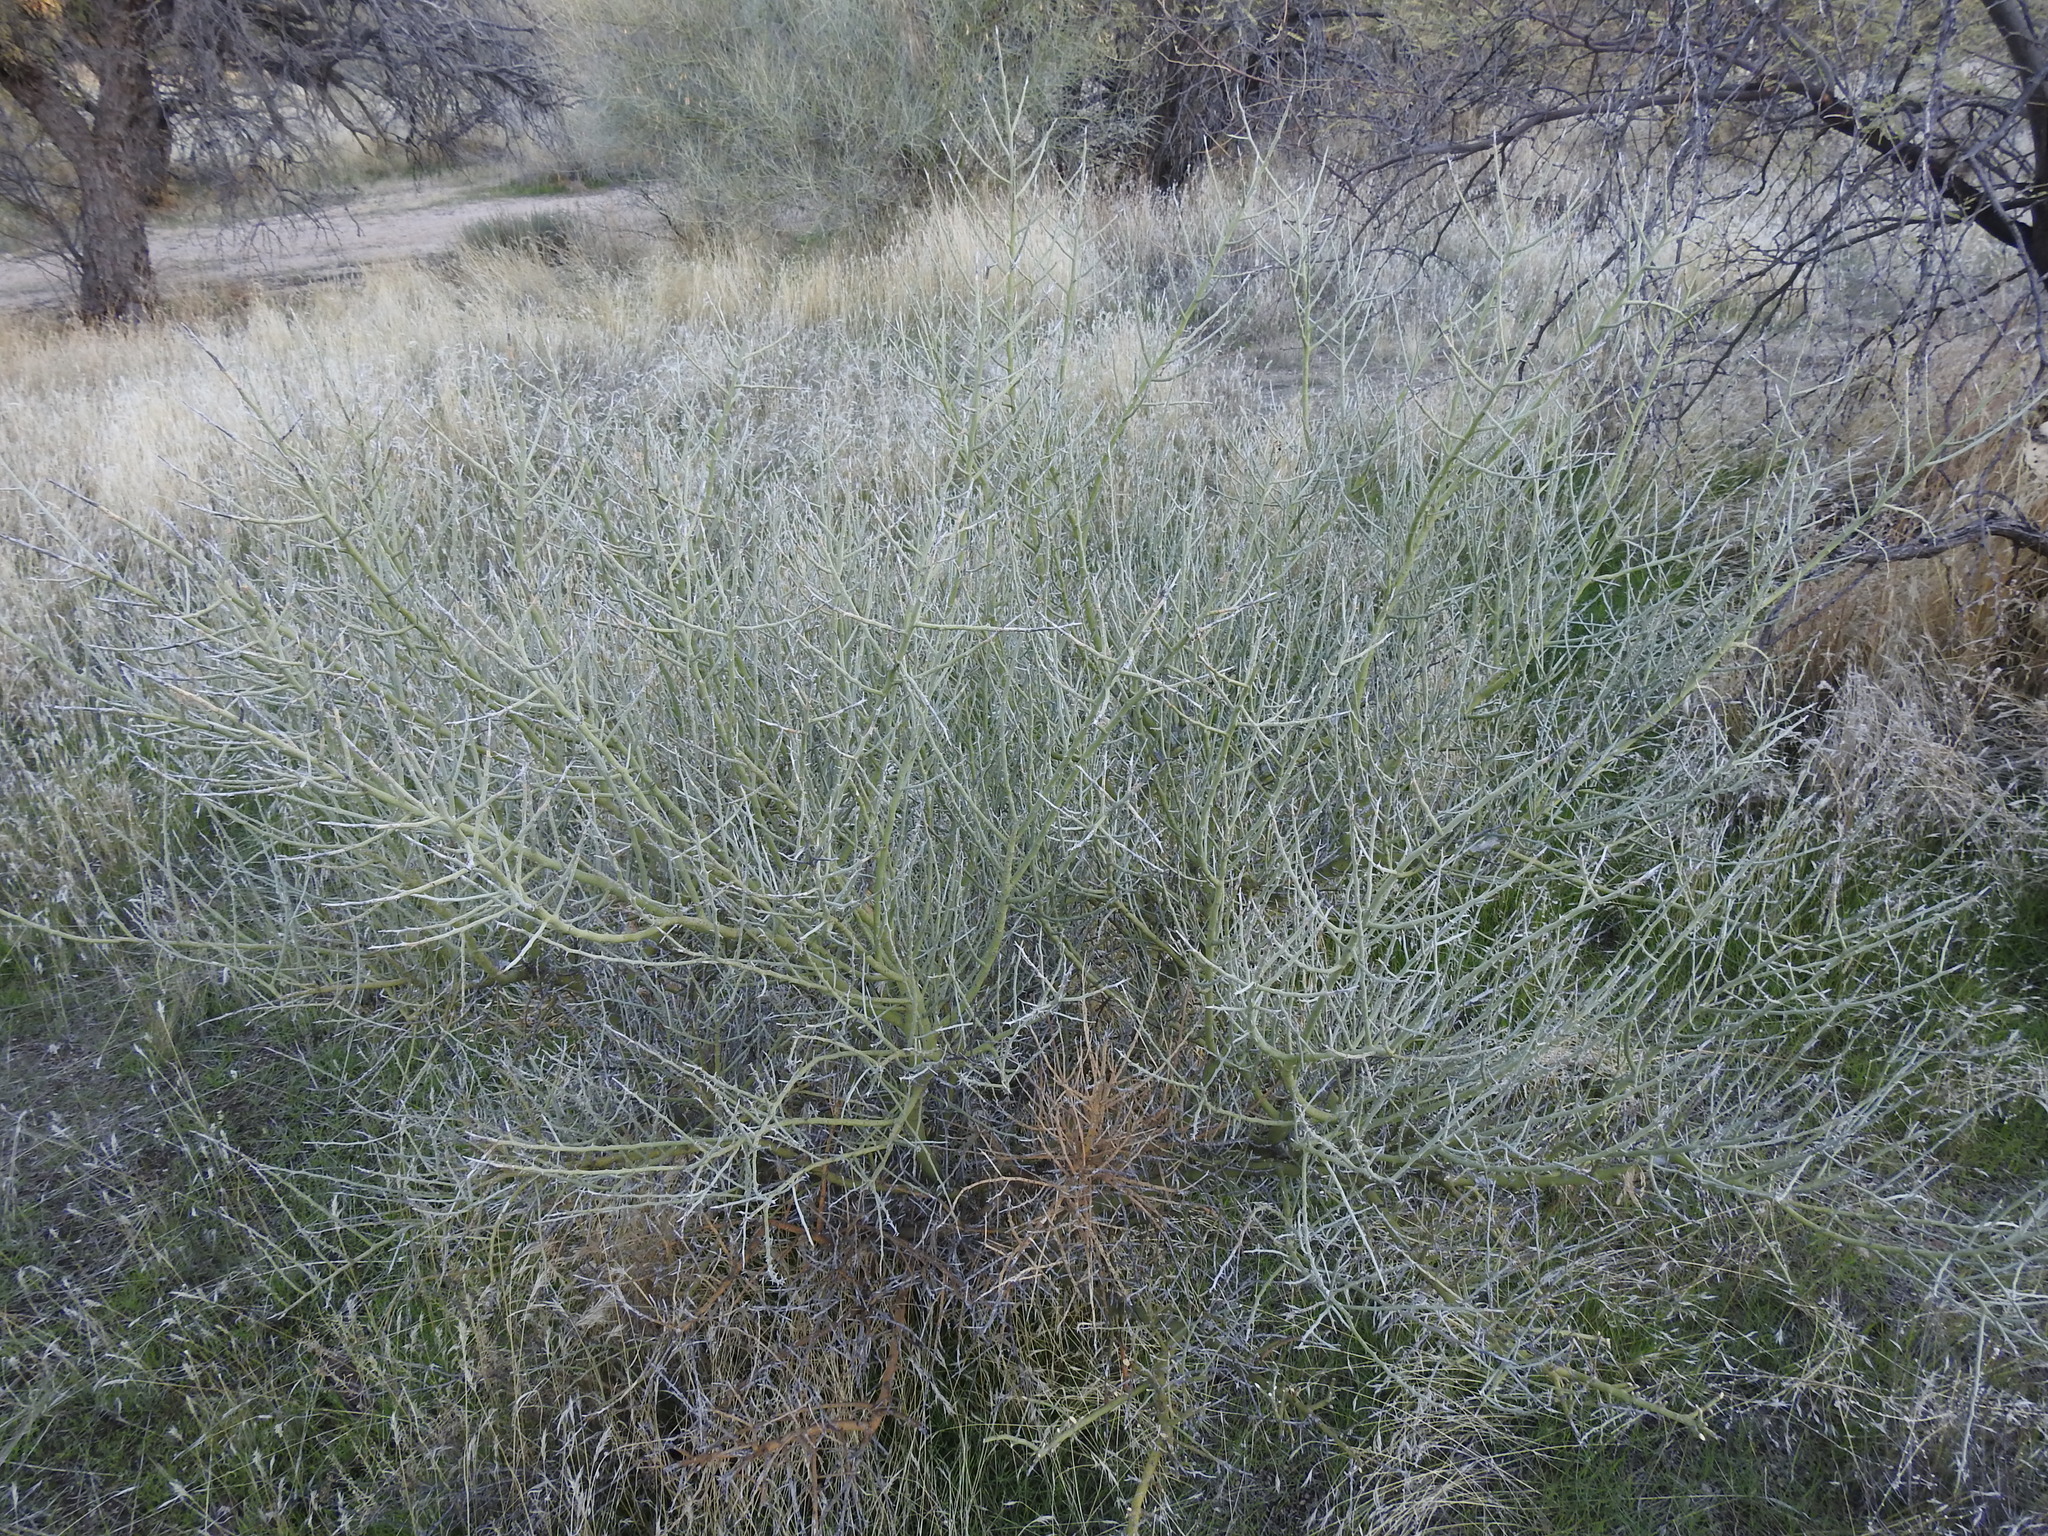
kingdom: Plantae
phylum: Tracheophyta
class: Magnoliopsida
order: Fabales
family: Fabaceae
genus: Parkinsonia
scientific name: Parkinsonia florida
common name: Blue paloverde
